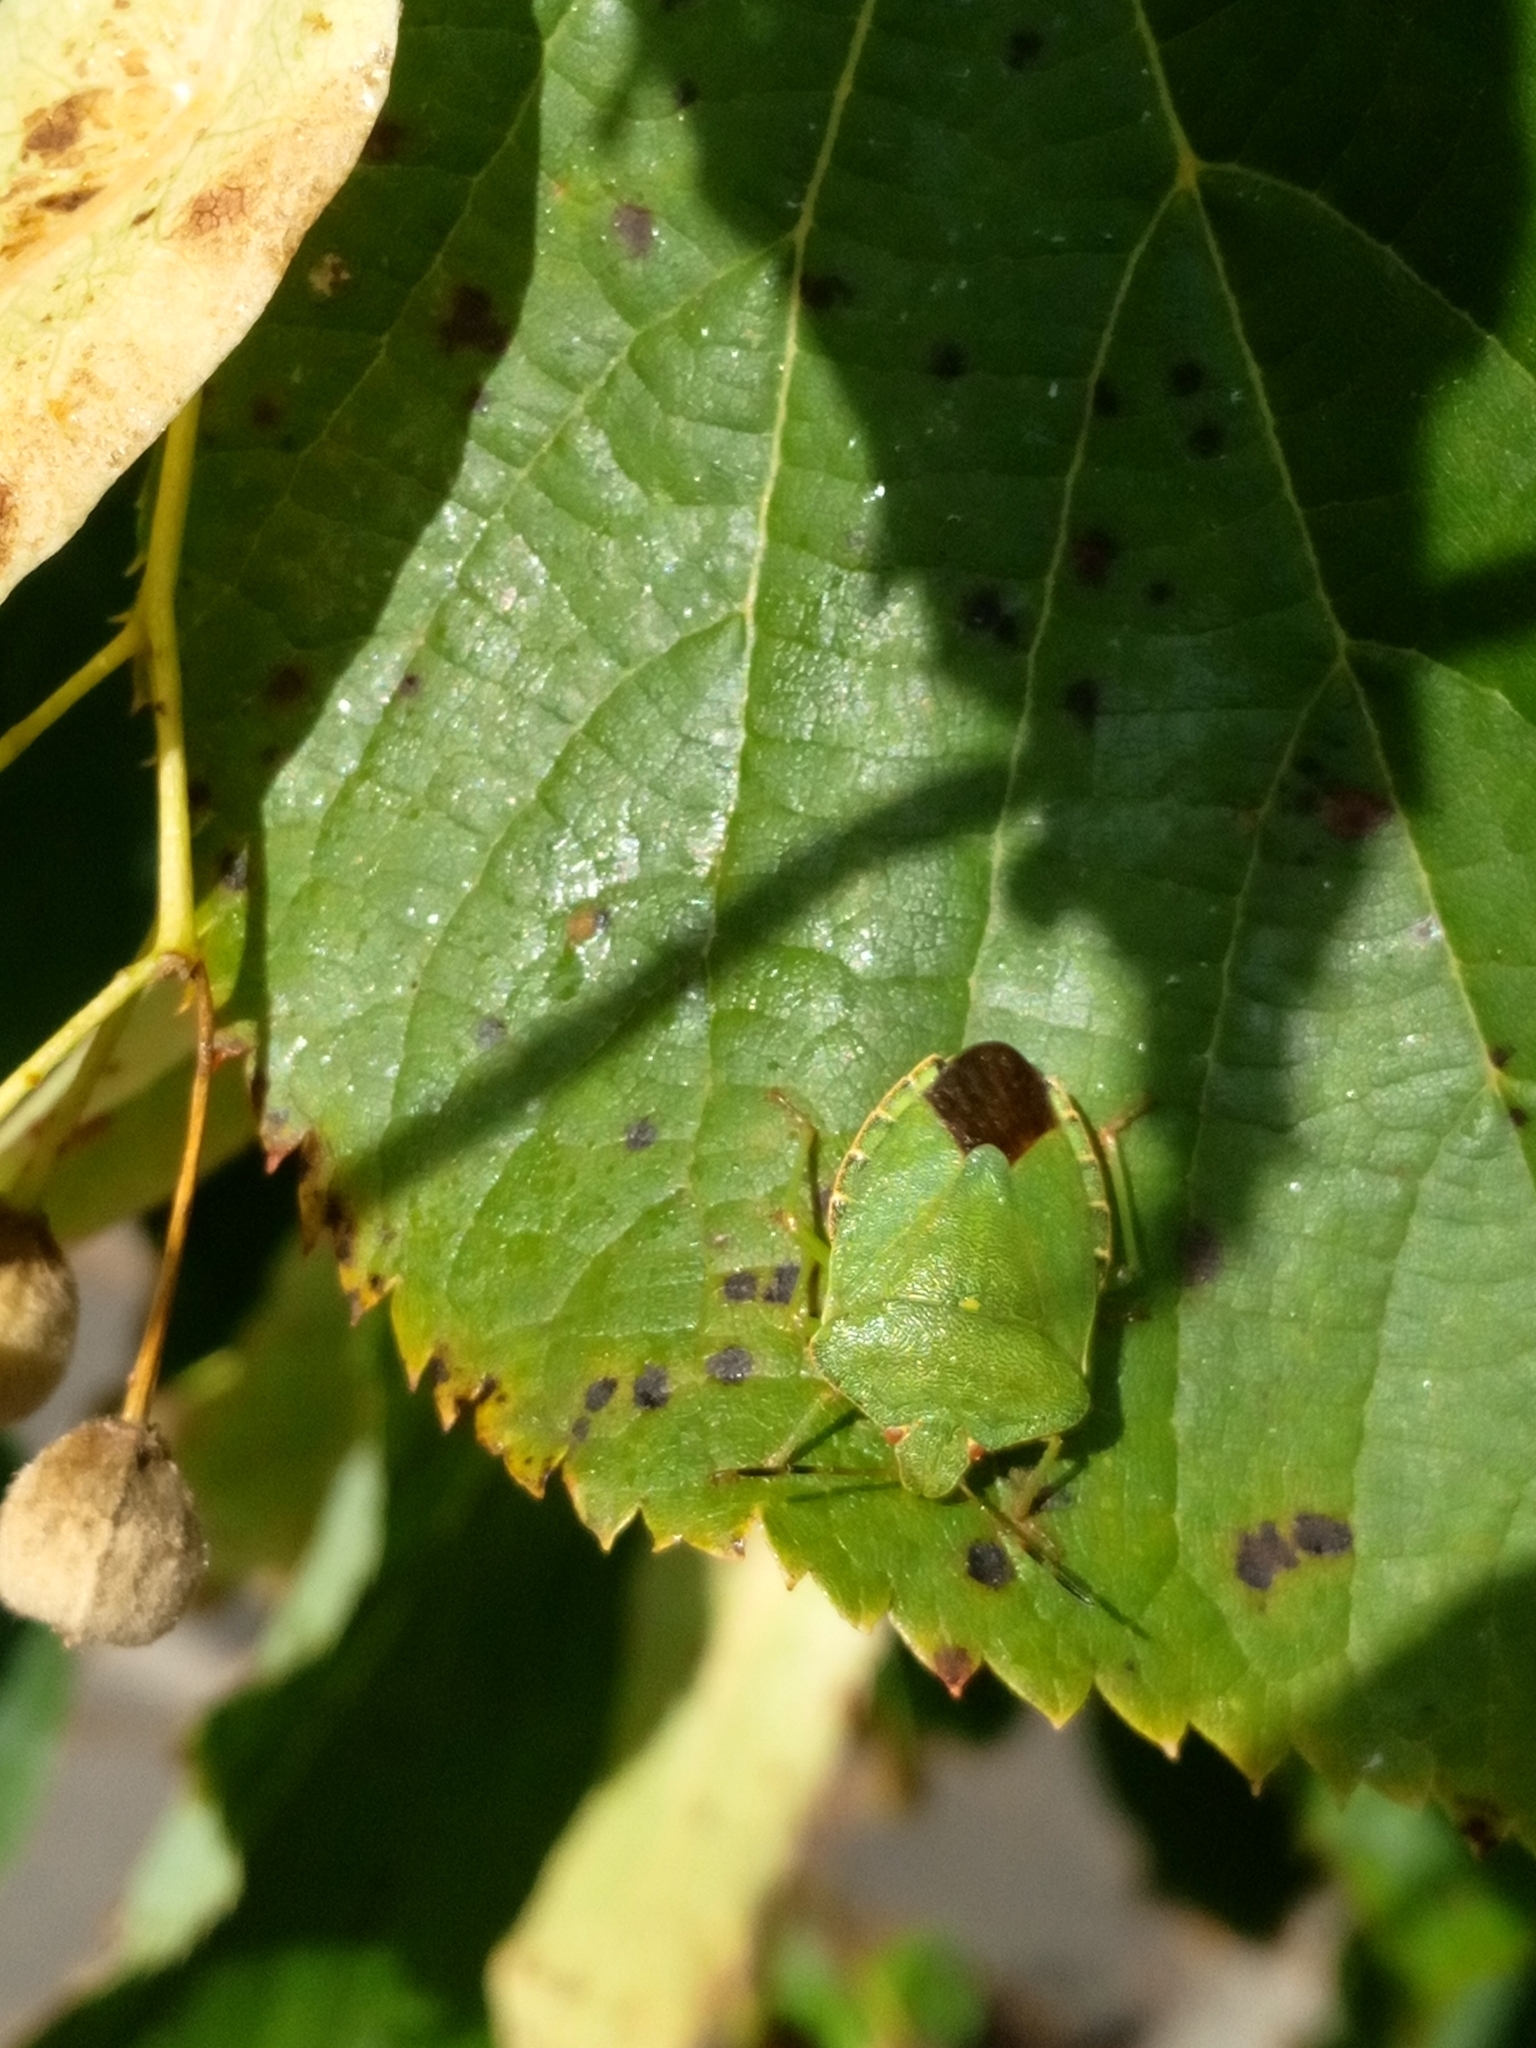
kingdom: Animalia
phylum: Arthropoda
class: Insecta
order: Hemiptera
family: Pentatomidae
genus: Palomena
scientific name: Palomena prasina
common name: Green shieldbug
